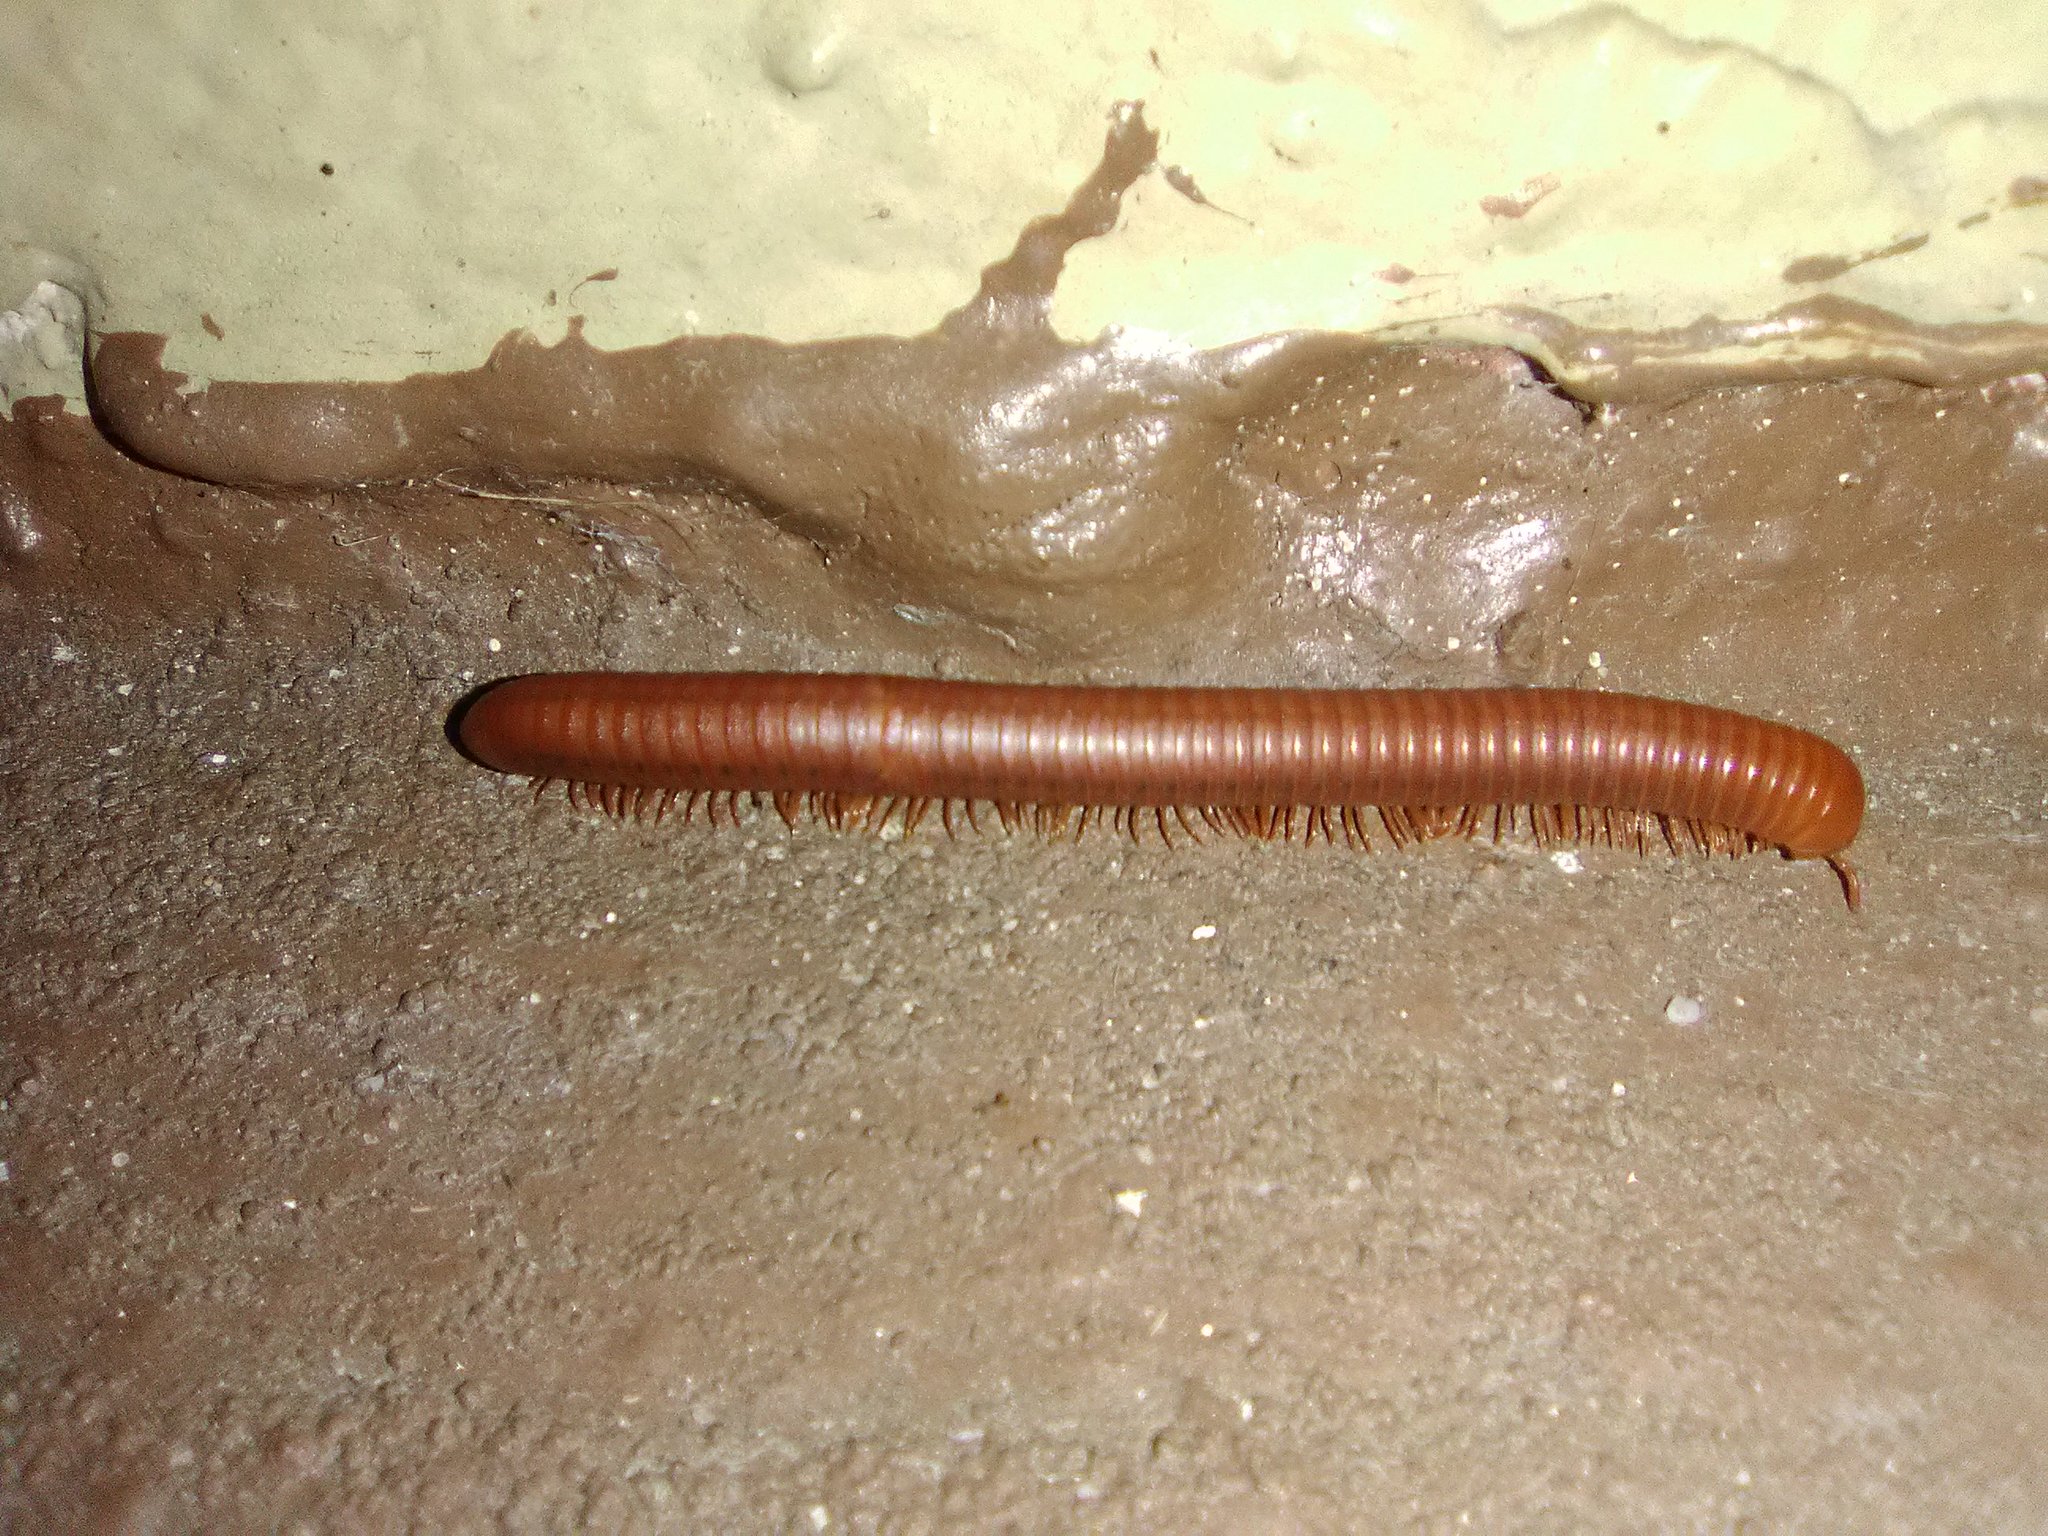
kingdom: Animalia
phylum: Arthropoda
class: Diplopoda
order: Spirobolida
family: Pachybolidae
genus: Trigoniulus
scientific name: Trigoniulus corallinus
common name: Millipede
